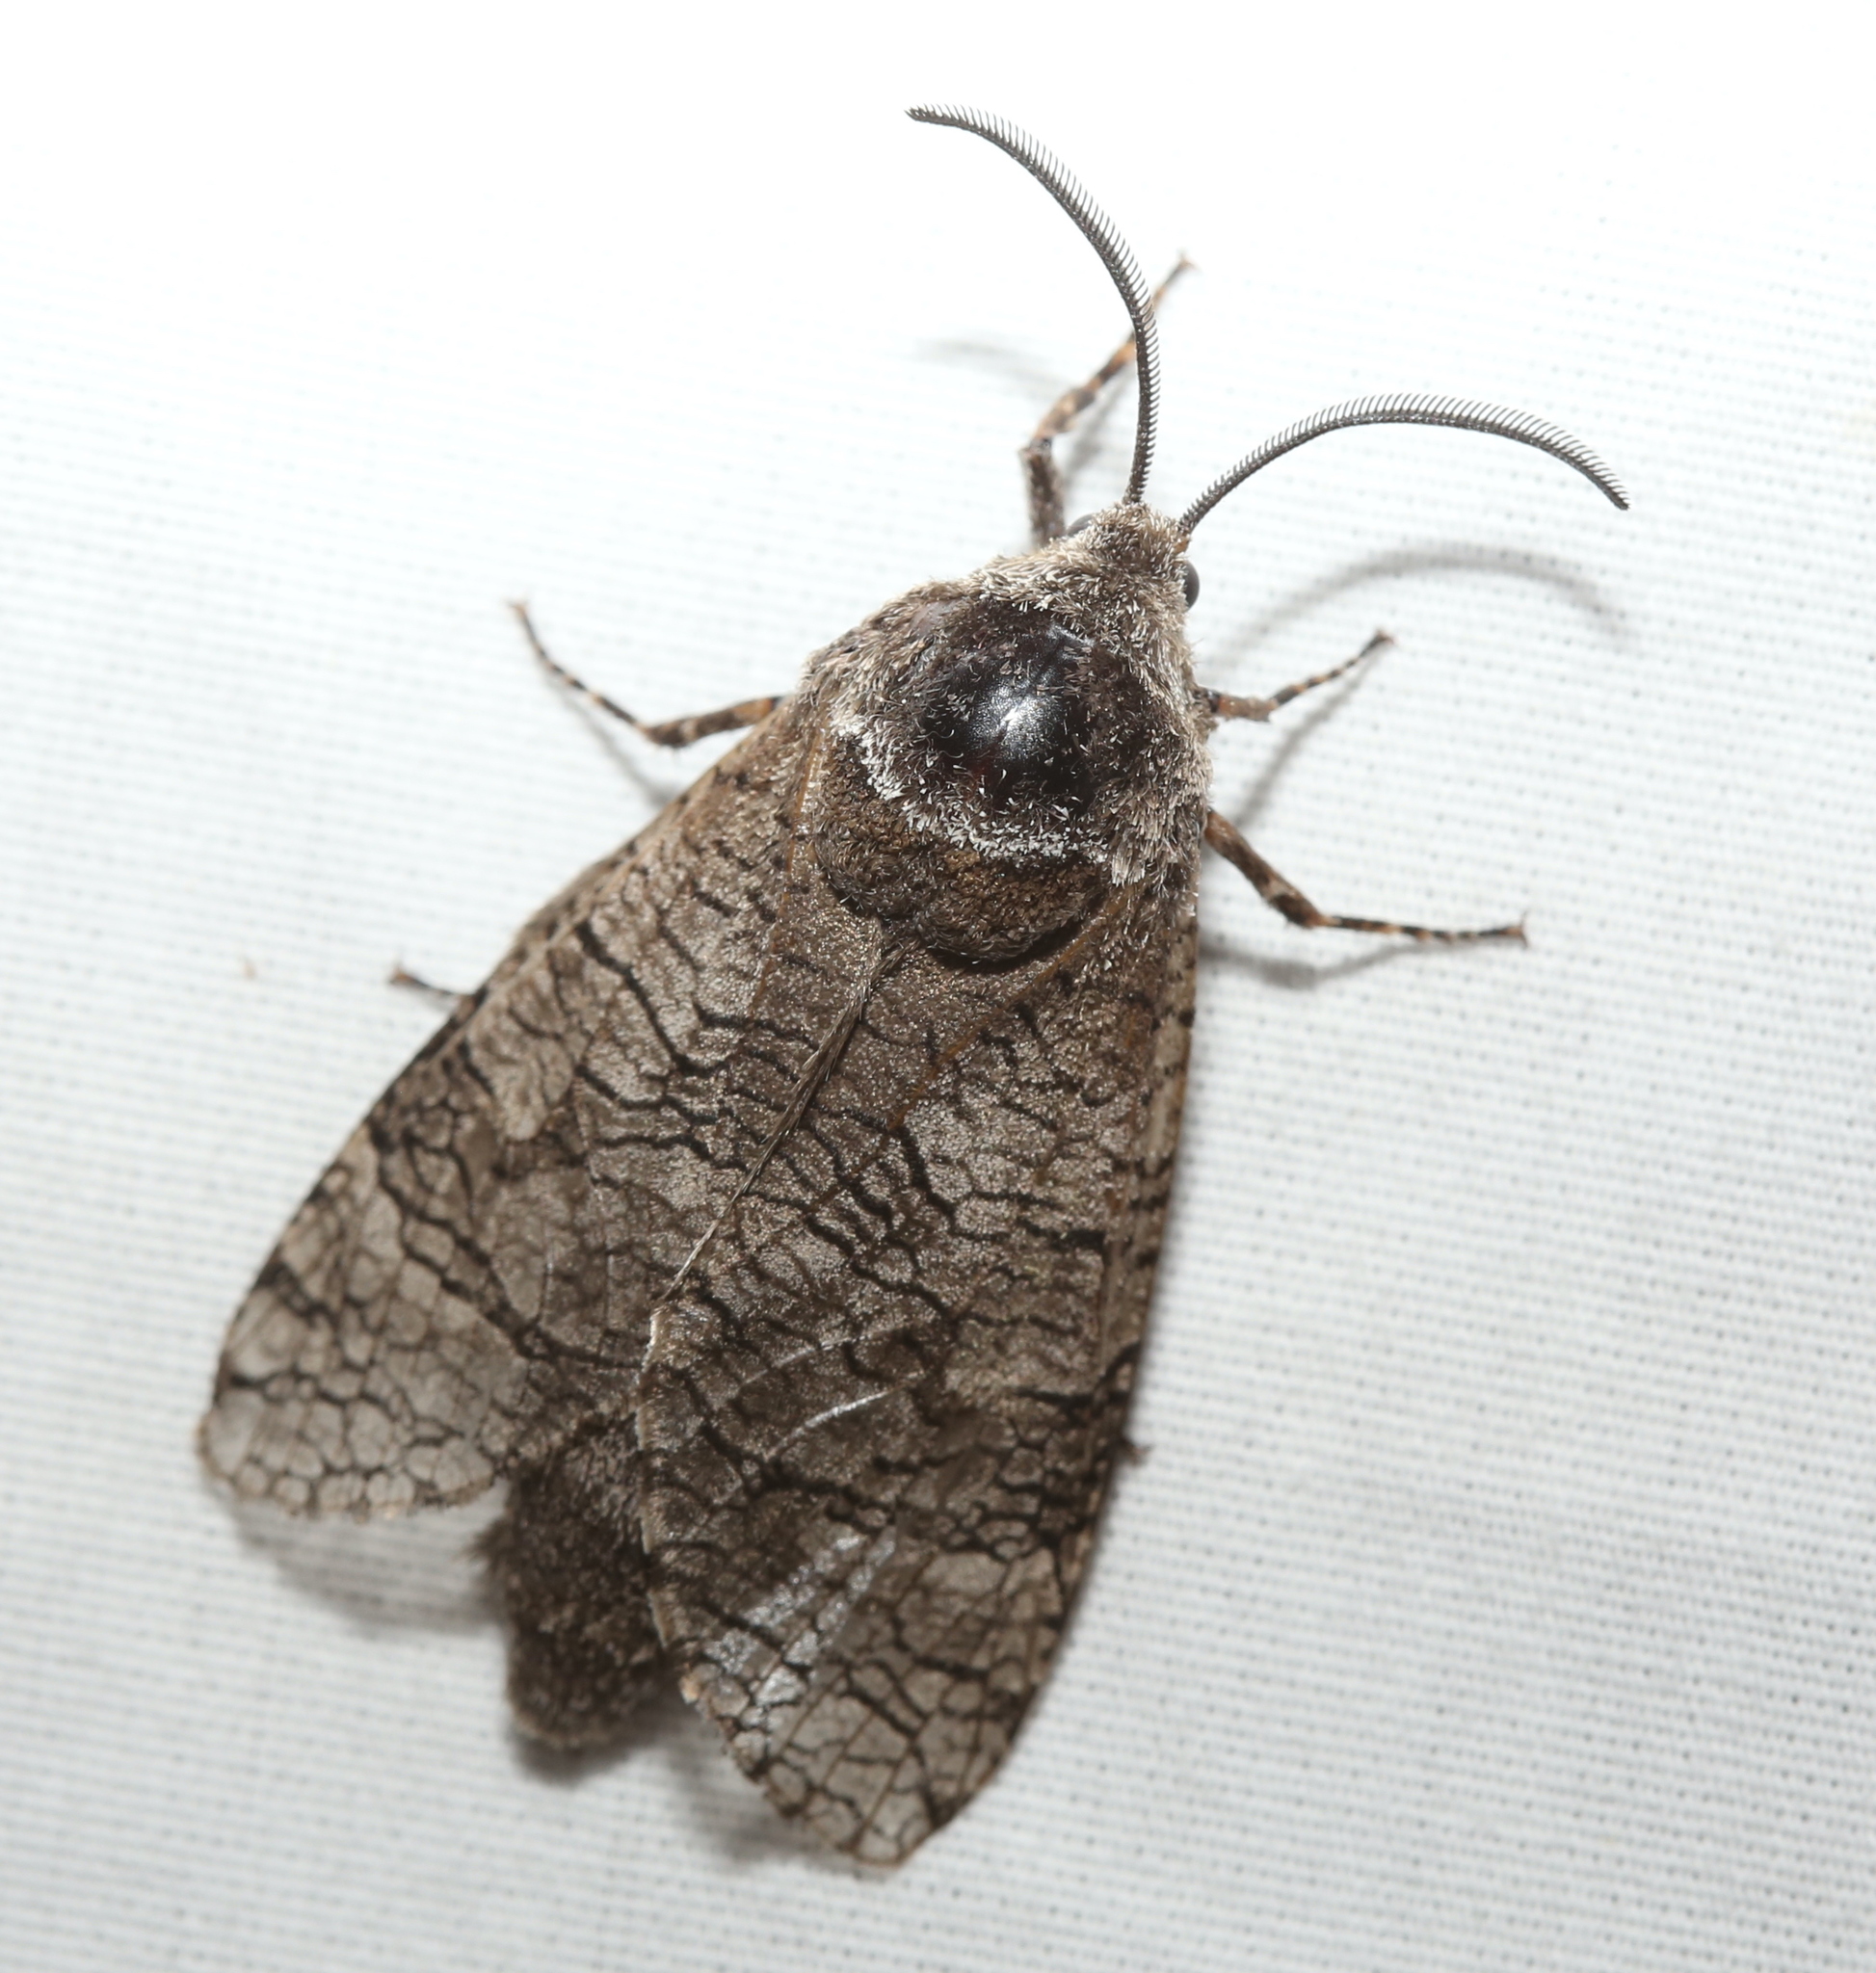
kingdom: Animalia
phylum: Arthropoda
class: Insecta
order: Lepidoptera
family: Cossidae
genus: Prionoxystus
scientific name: Prionoxystus macmurtrei
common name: Little carpenterworm
